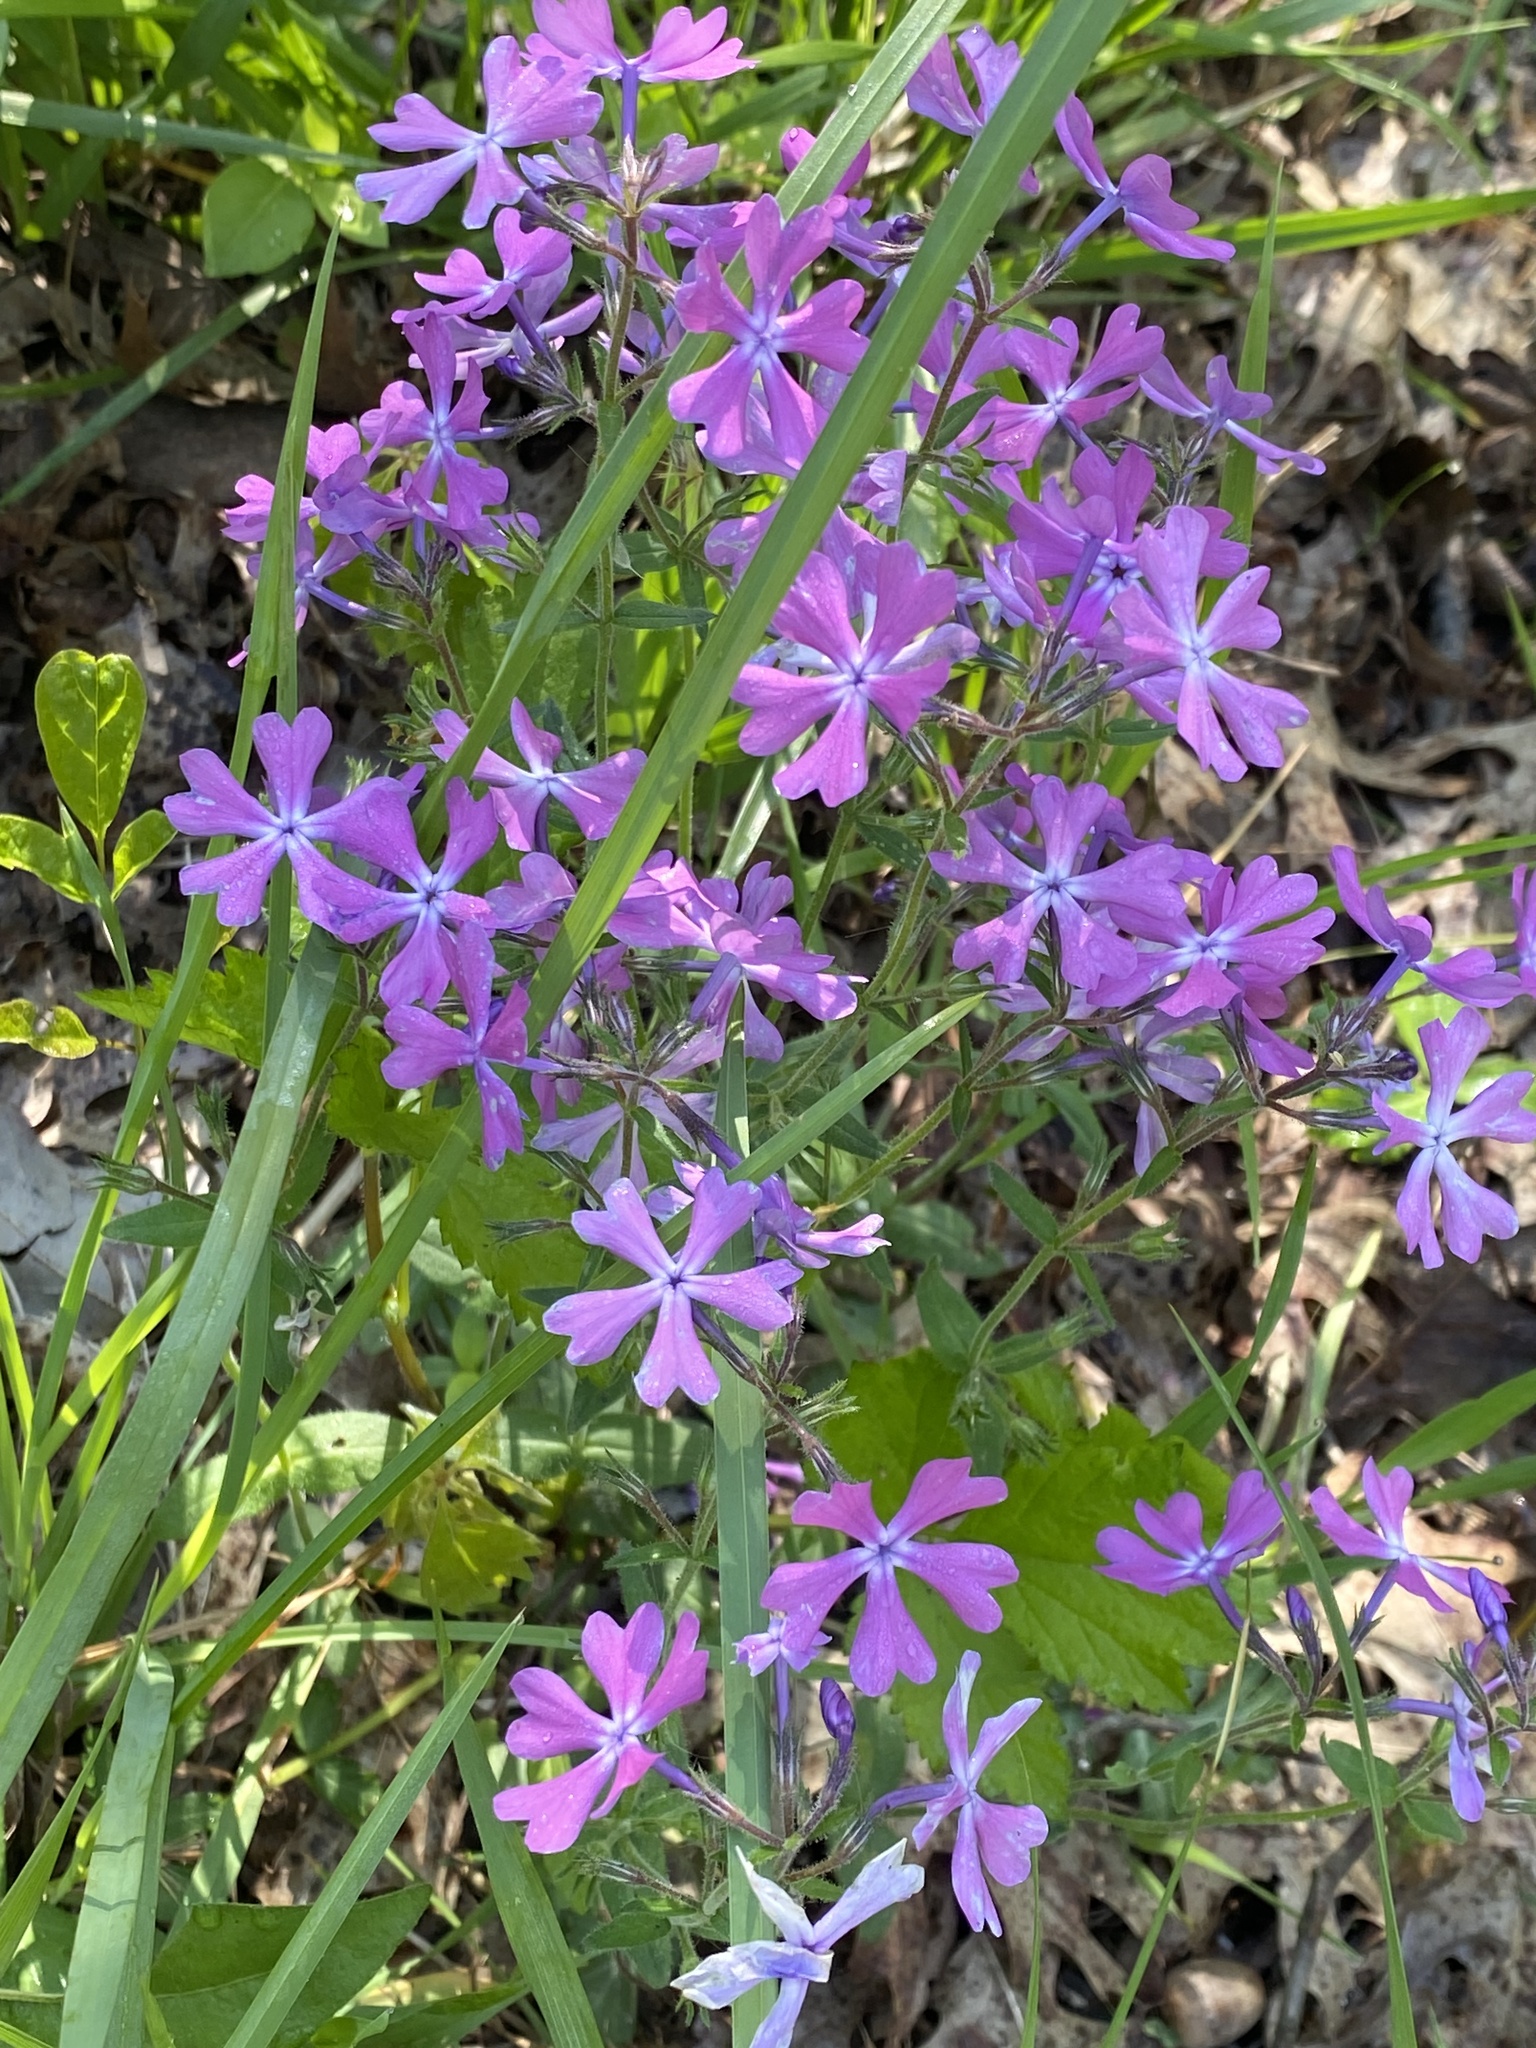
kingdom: Plantae
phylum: Tracheophyta
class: Magnoliopsida
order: Ericales
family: Polemoniaceae
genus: Phlox
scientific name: Phlox divaricata
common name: Blue phlox
